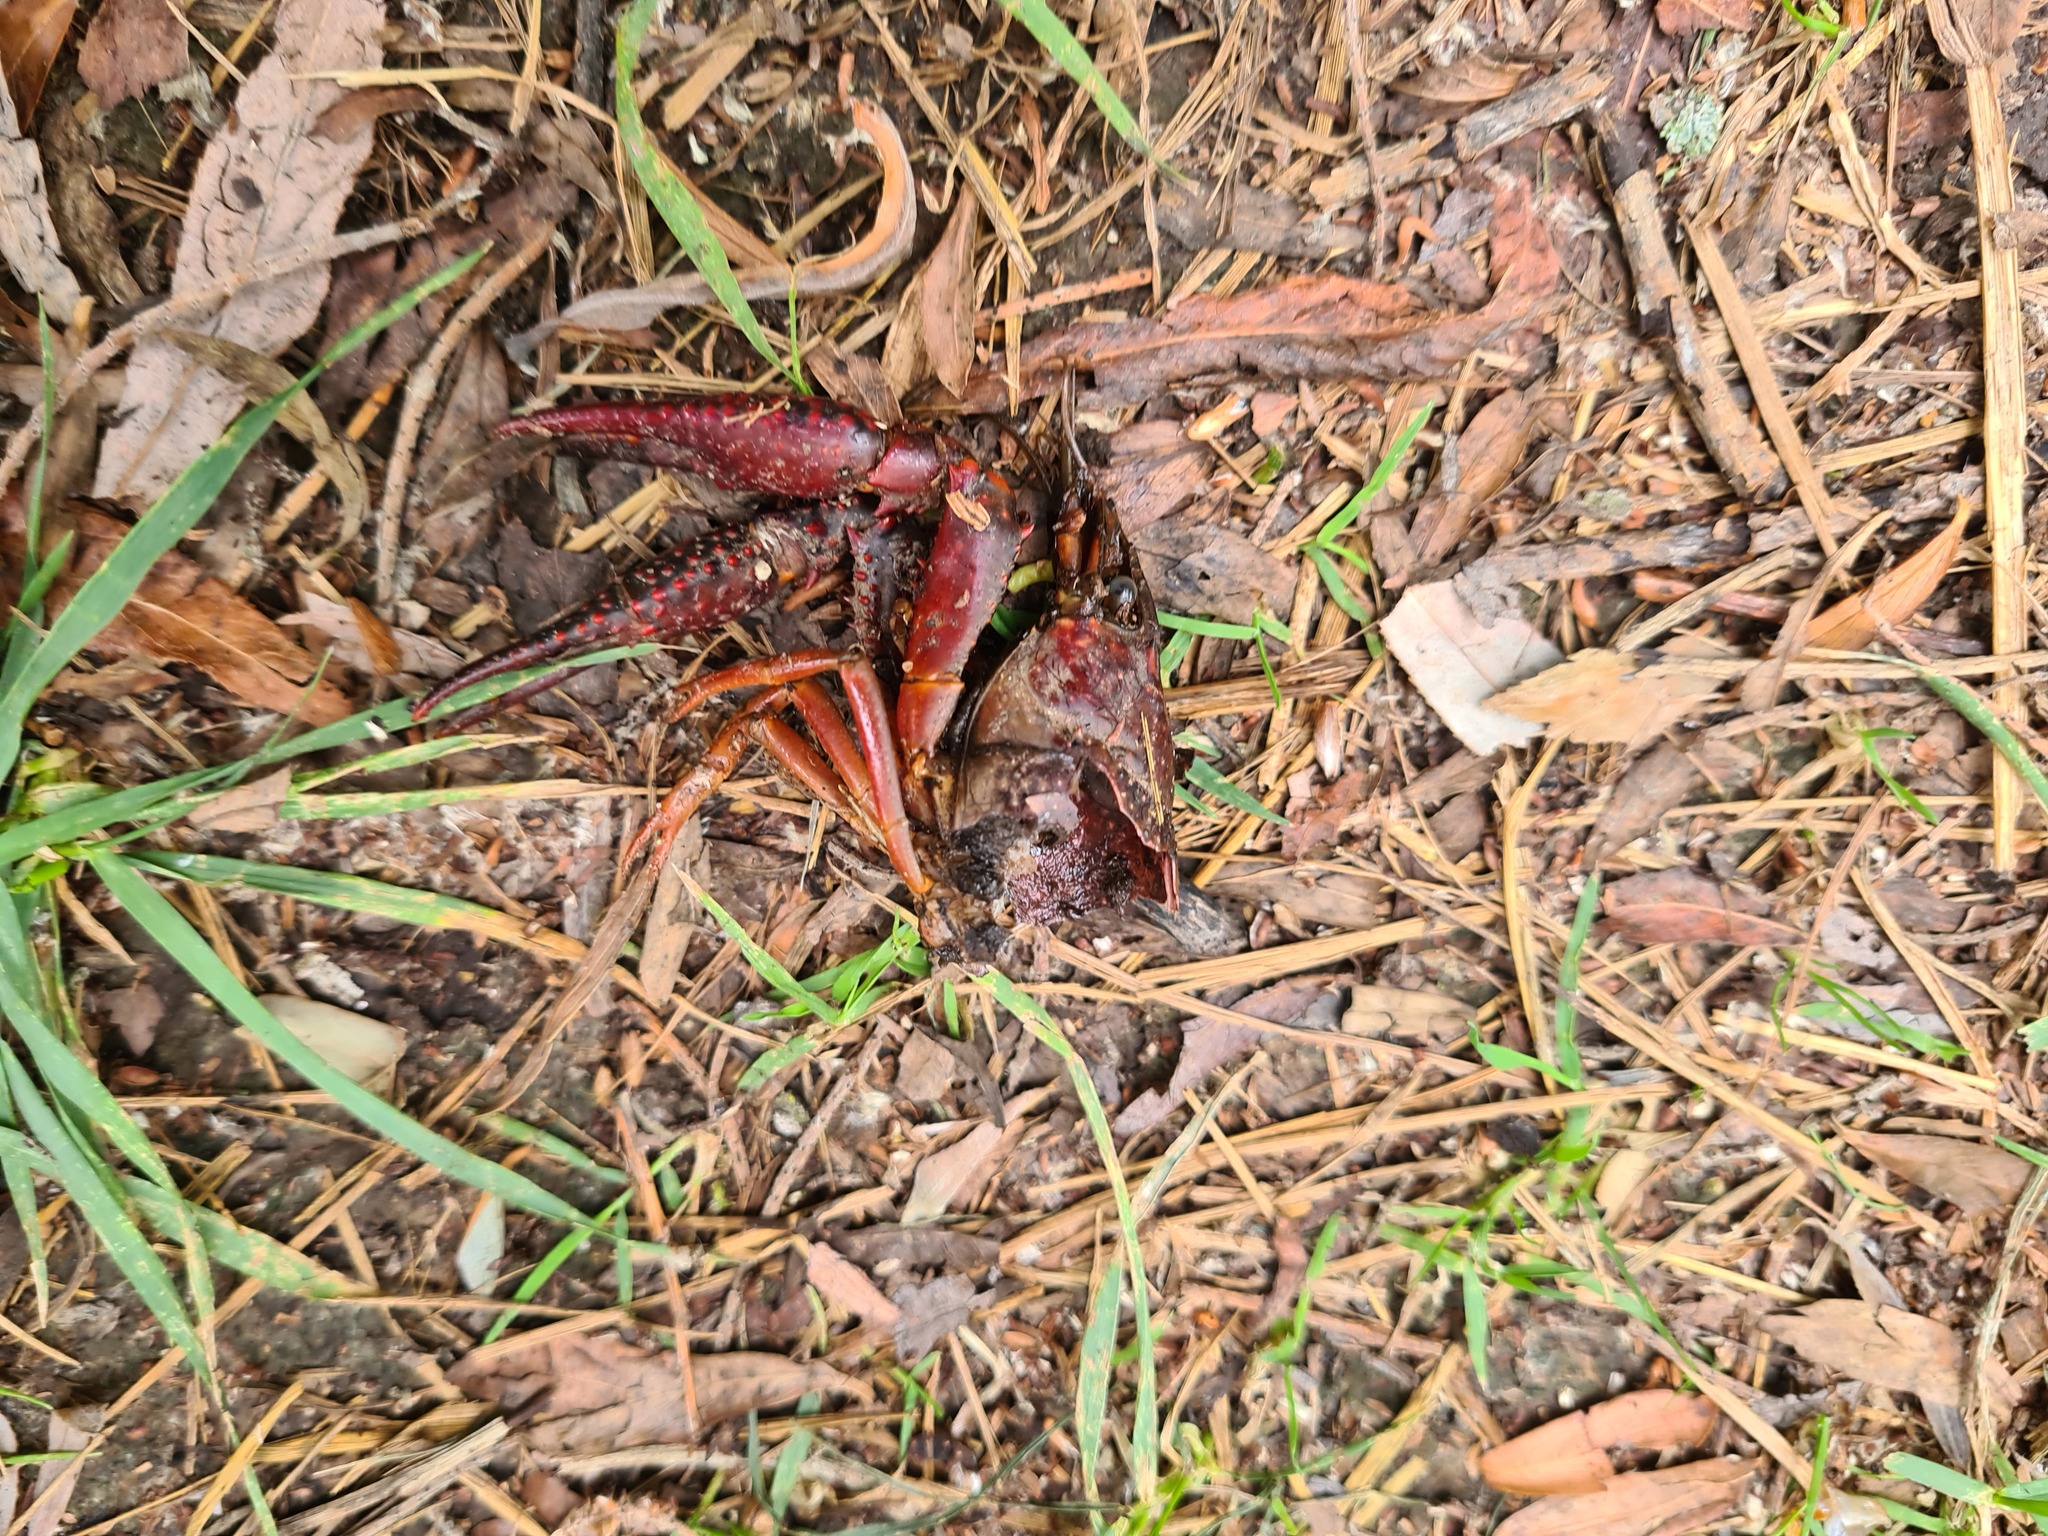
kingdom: Animalia
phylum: Arthropoda
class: Malacostraca
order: Decapoda
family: Cambaridae
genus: Procambarus
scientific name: Procambarus clarkii
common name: Red swamp crayfish
